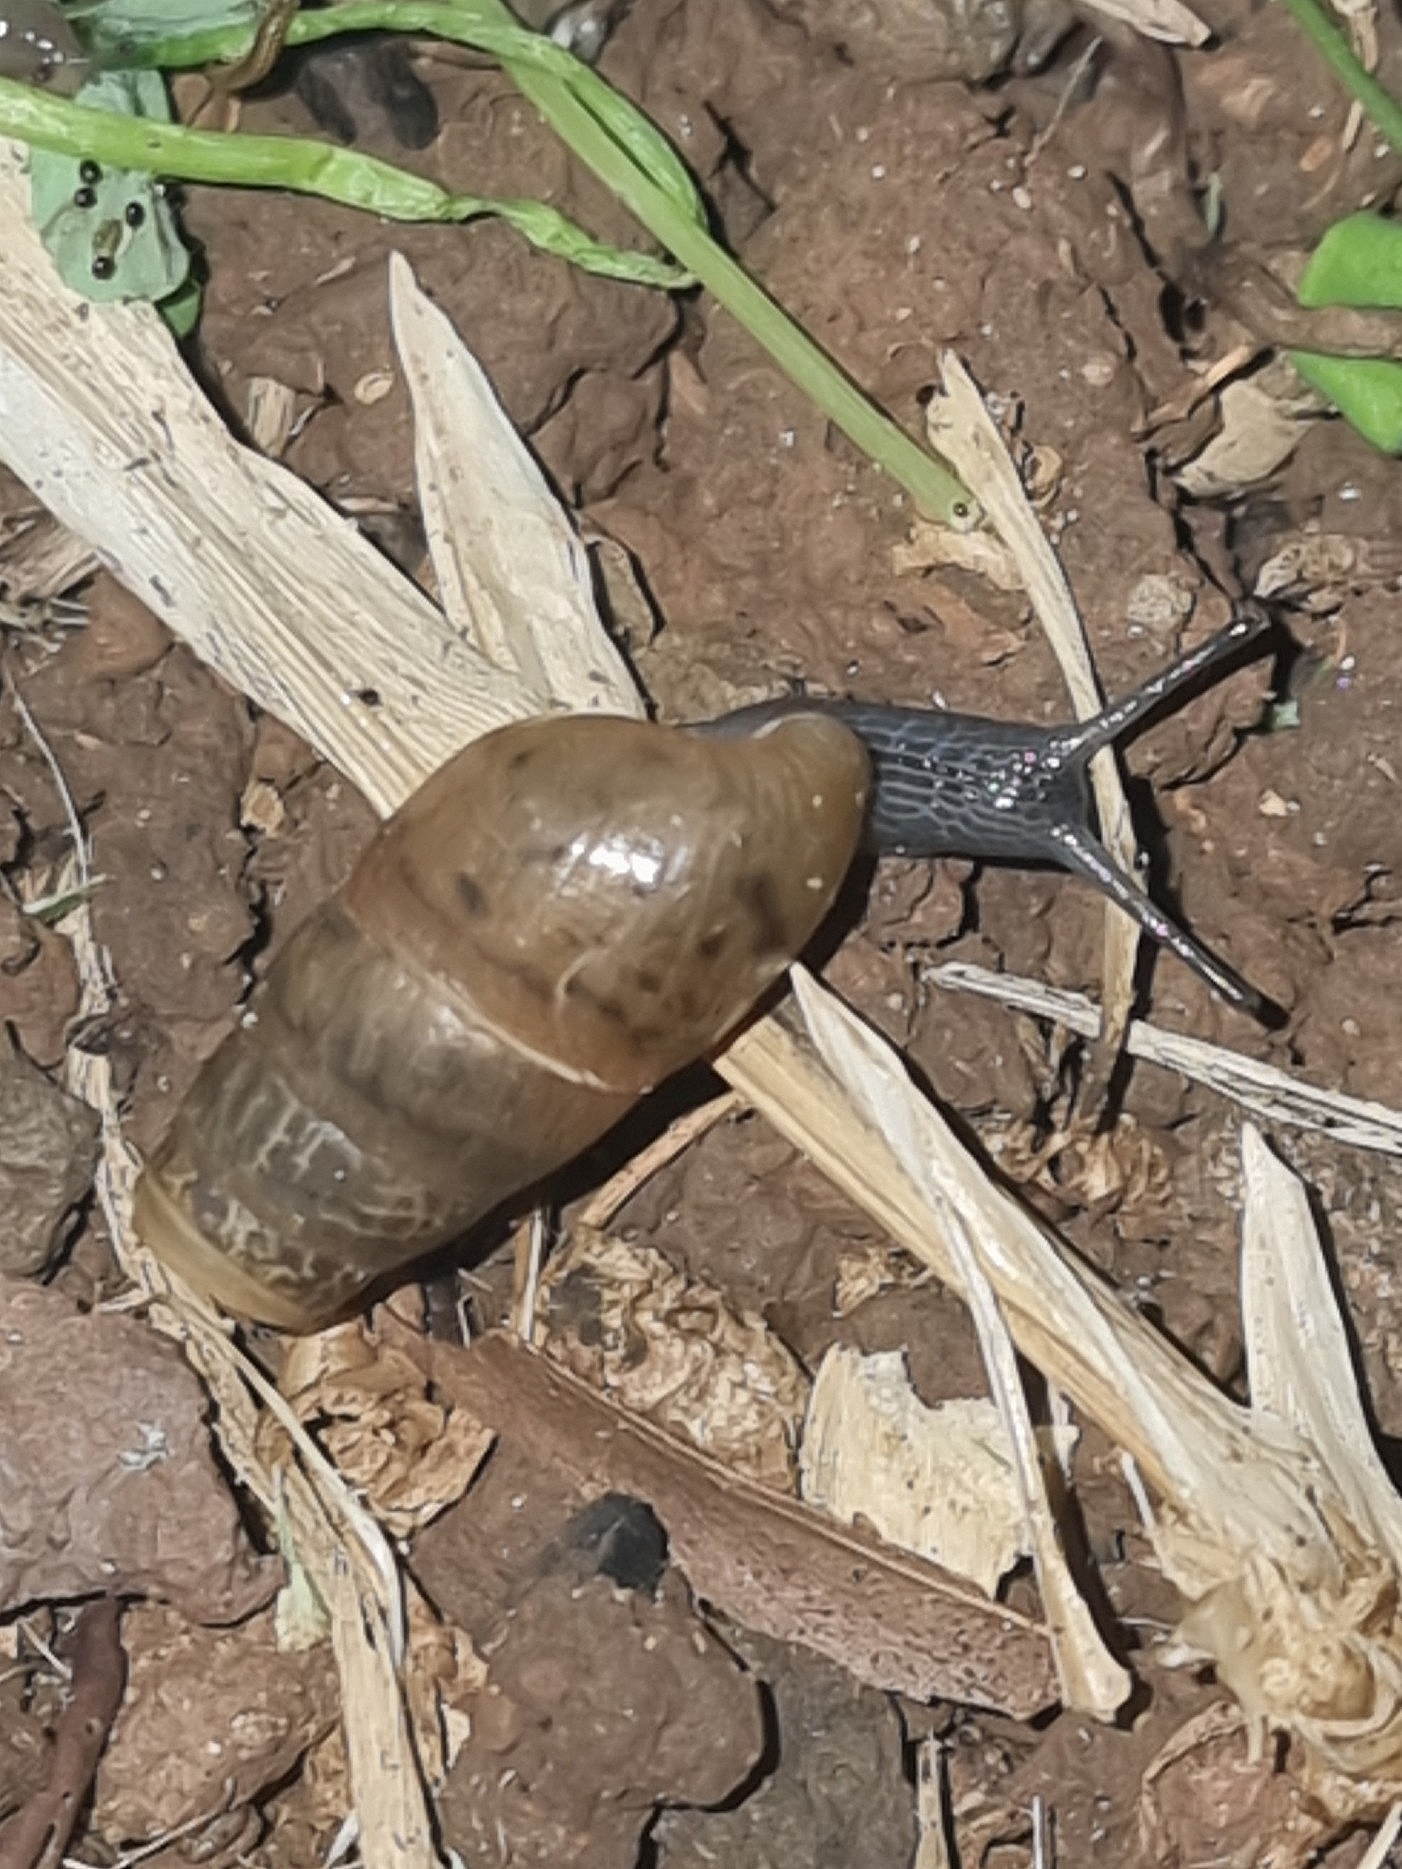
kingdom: Animalia
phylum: Mollusca
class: Gastropoda
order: Stylommatophora
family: Achatinidae
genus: Rumina
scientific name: Rumina decollata
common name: Decollate snail
